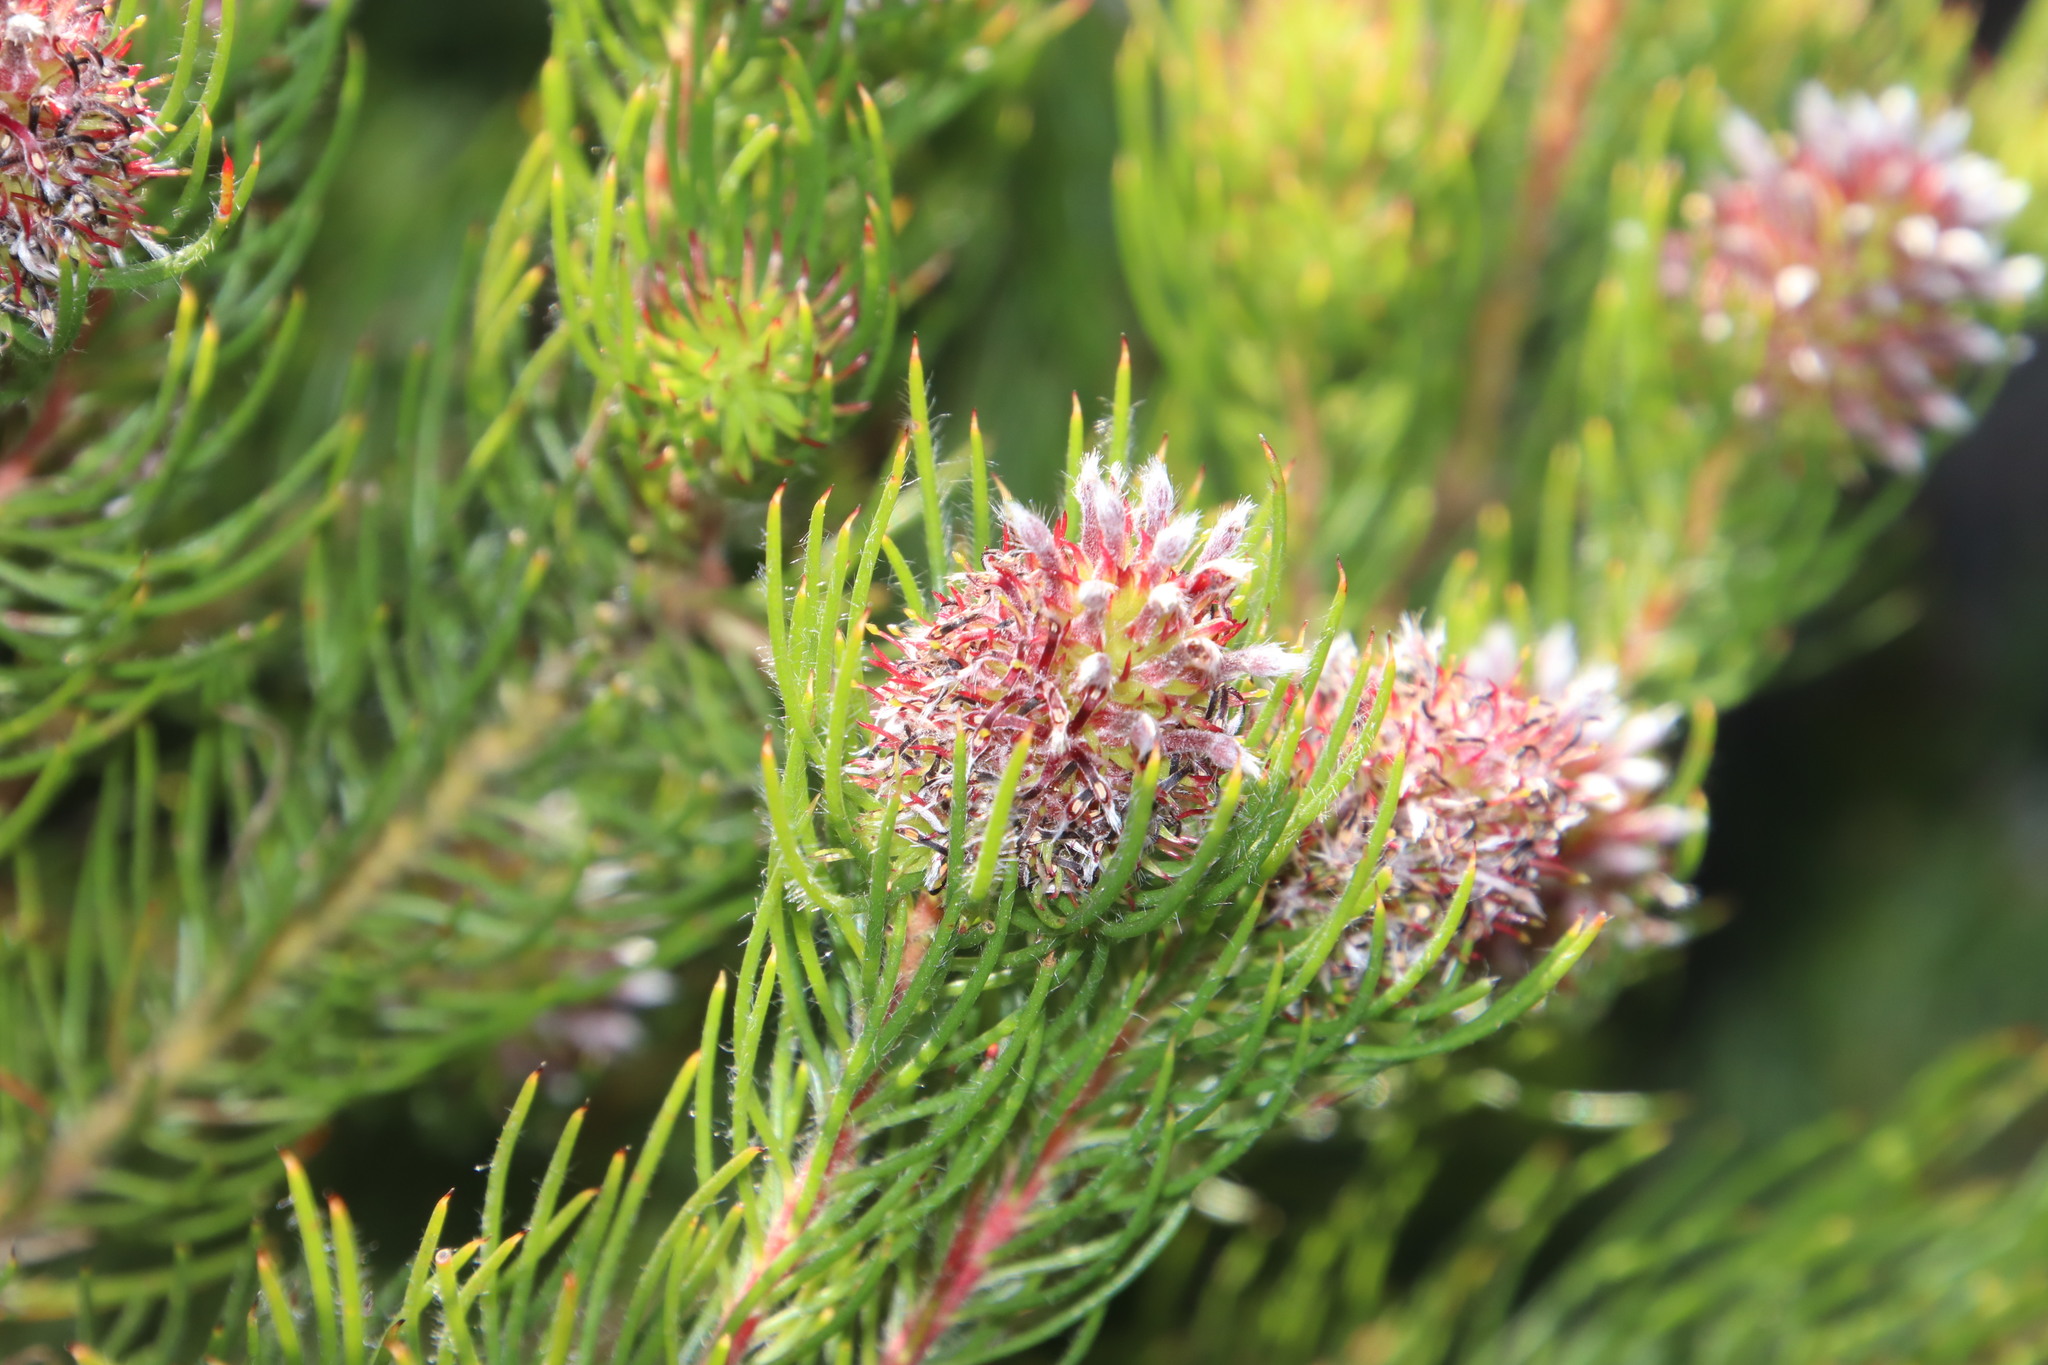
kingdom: Plantae
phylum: Tracheophyta
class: Magnoliopsida
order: Proteales
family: Proteaceae
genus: Spatalla
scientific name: Spatalla setacea
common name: Needle-leaf spoon
